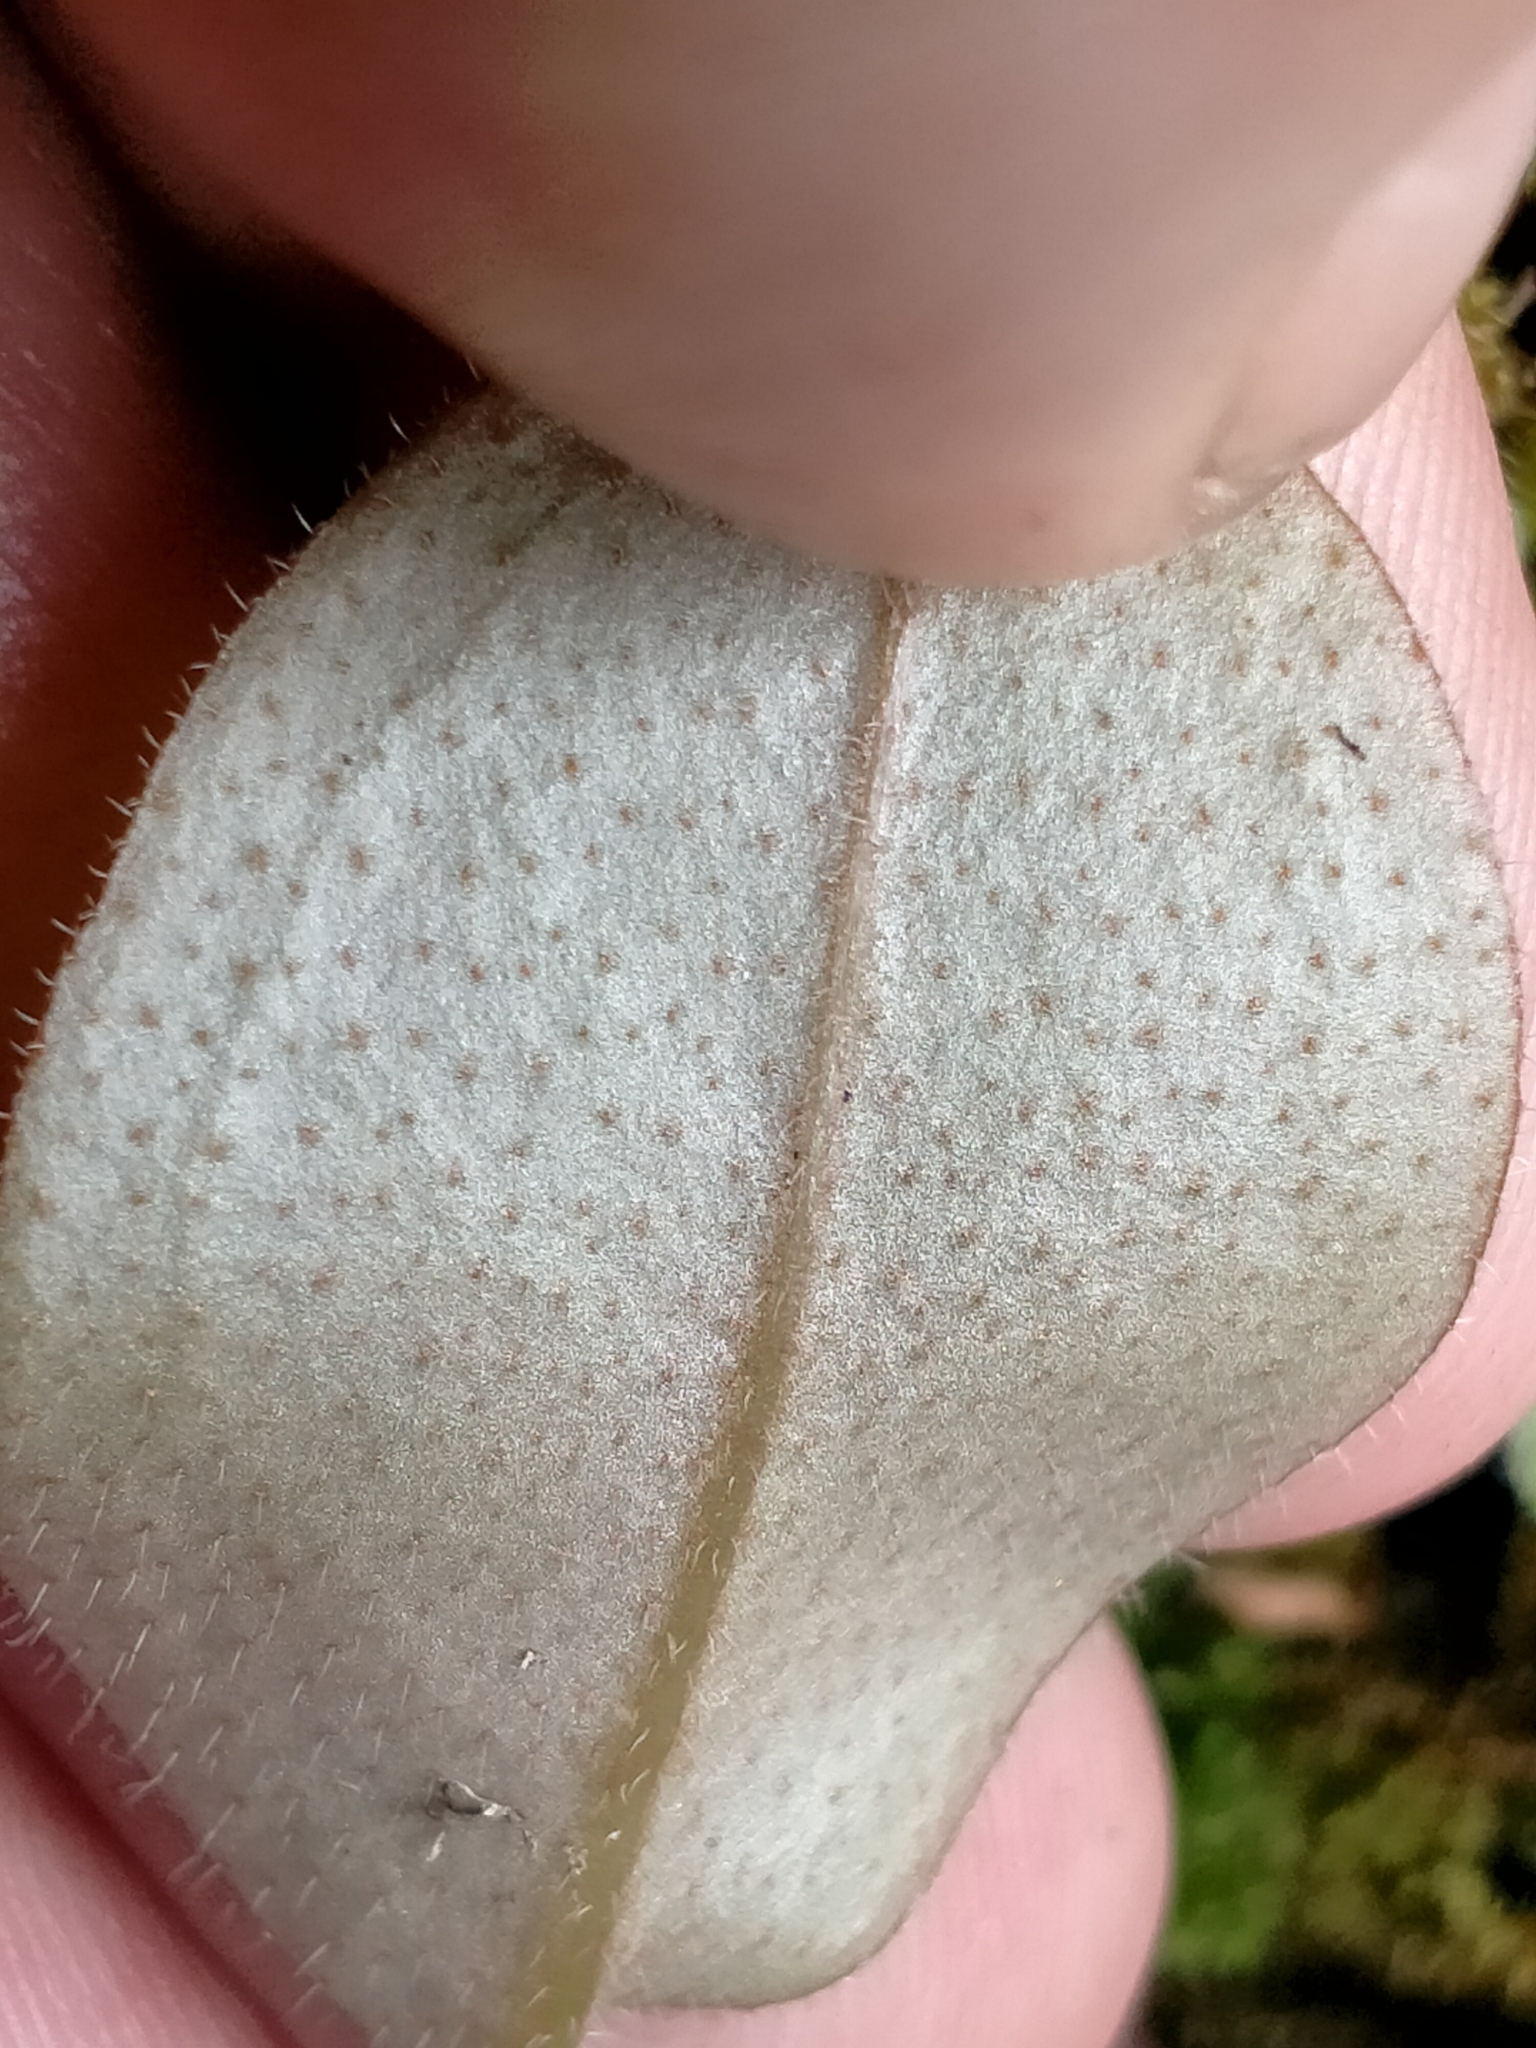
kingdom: Plantae
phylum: Tracheophyta
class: Magnoliopsida
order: Boraginales
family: Boraginaceae
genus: Myosotis
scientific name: Myosotis forsteri
